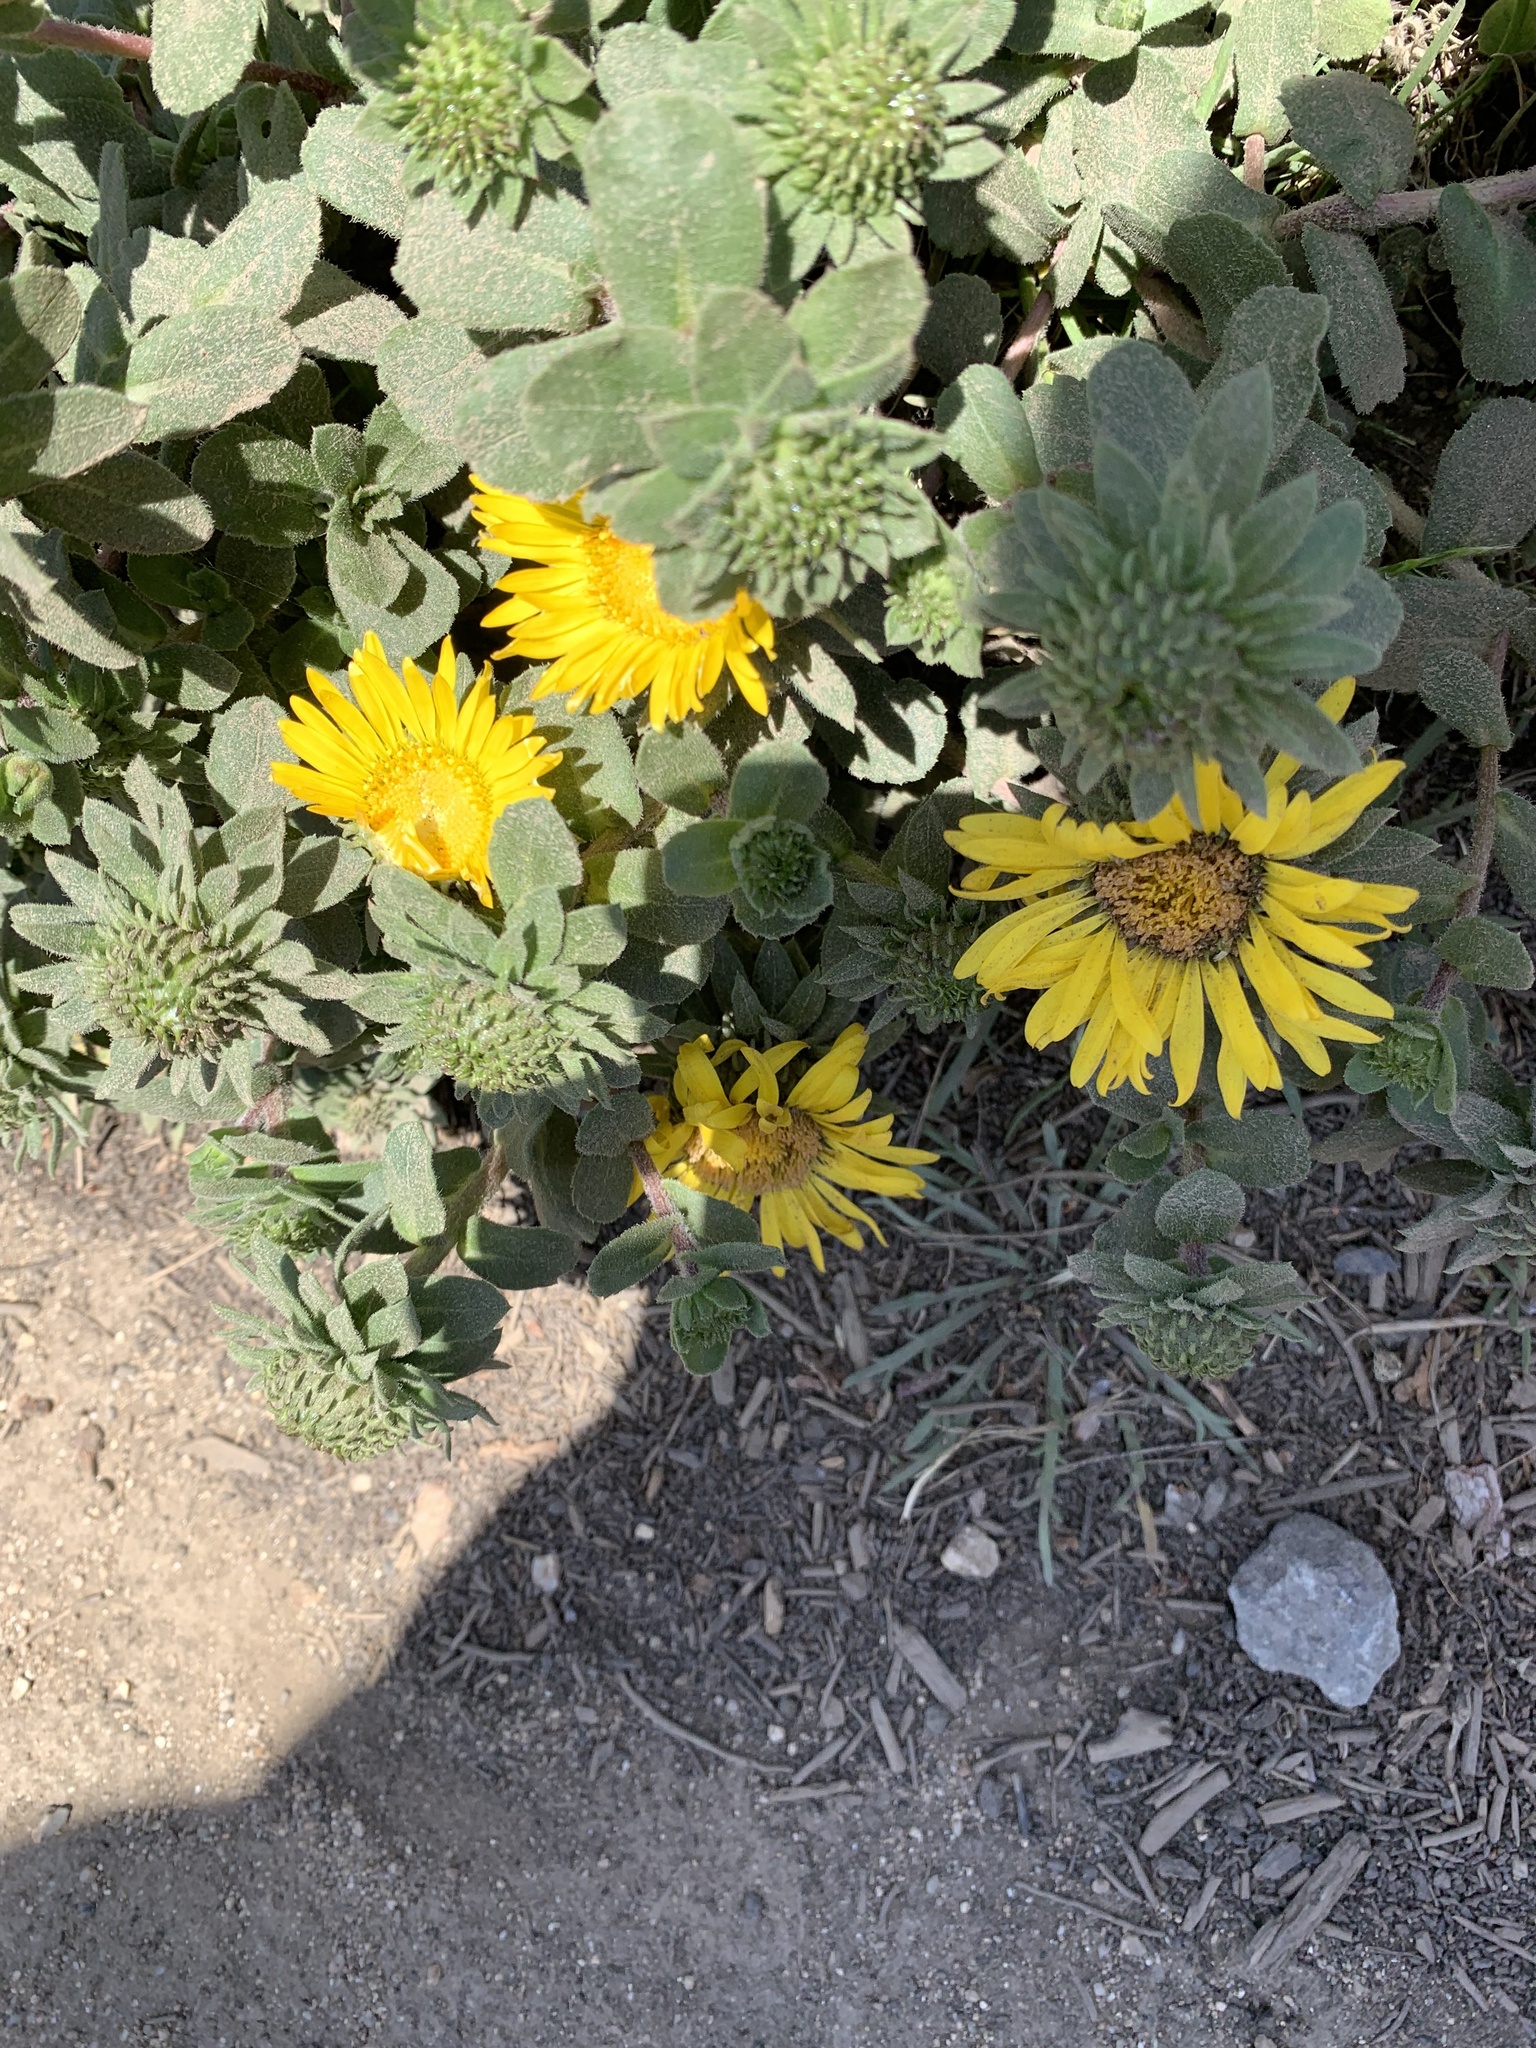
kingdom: Plantae
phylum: Tracheophyta
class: Magnoliopsida
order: Asterales
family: Asteraceae
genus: Grindelia
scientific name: Grindelia hirsutula
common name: Hairy gumweed
